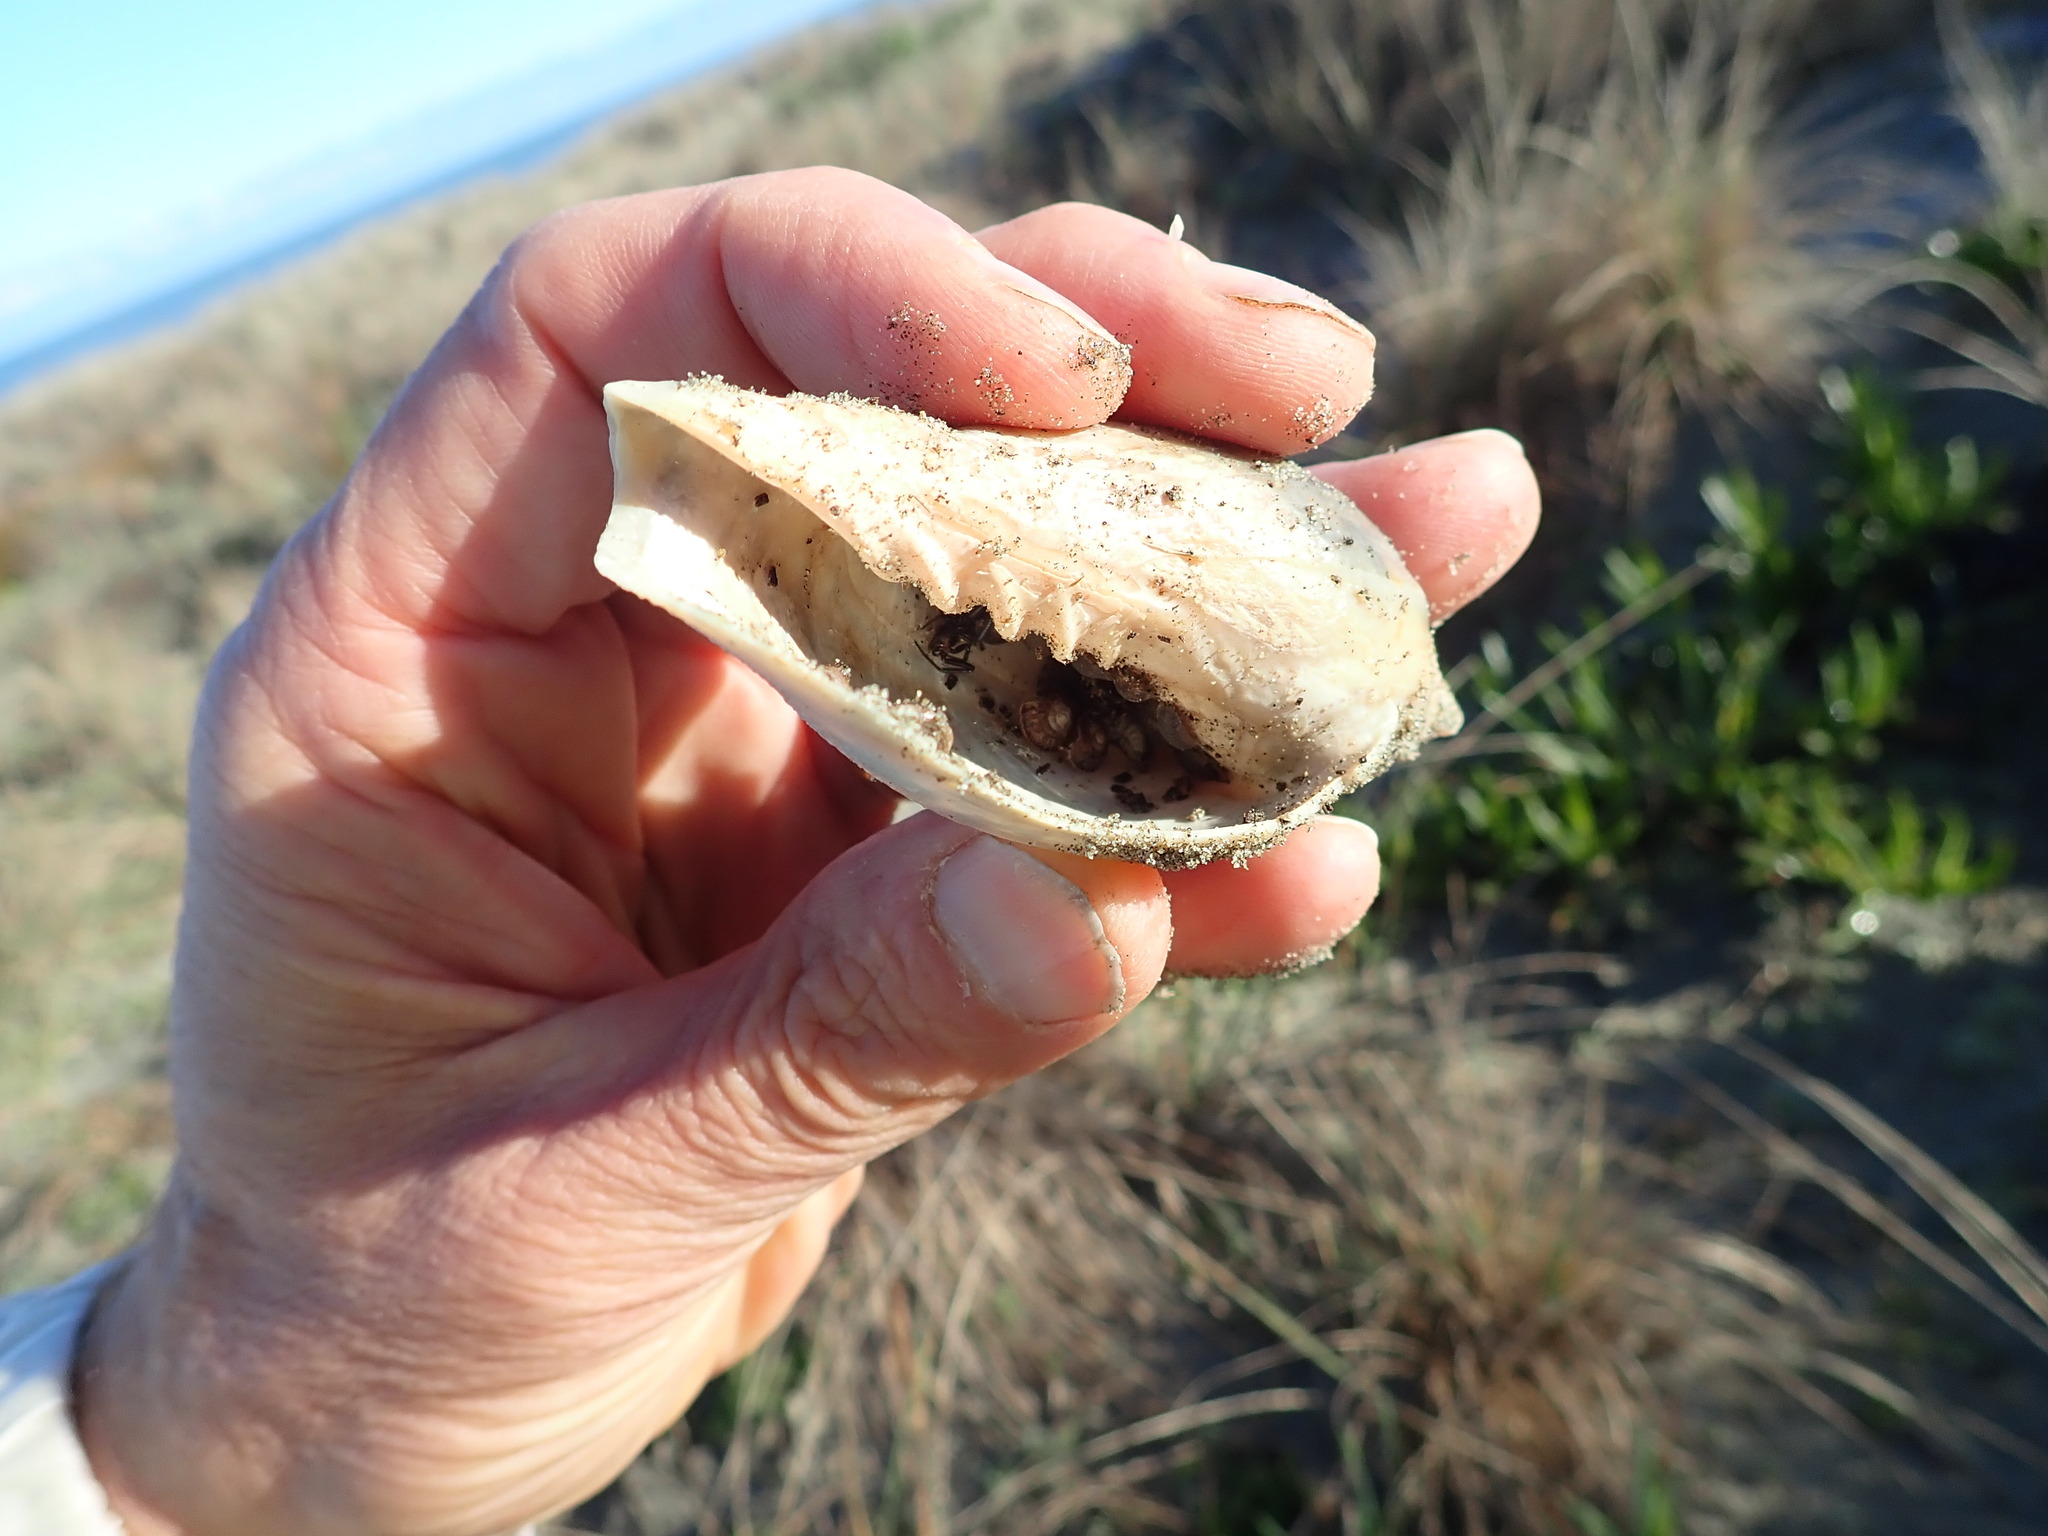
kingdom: Animalia
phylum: Mollusca
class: Gastropoda
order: Neogastropoda
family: Volutidae
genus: Alcithoe
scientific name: Alcithoe arabica
